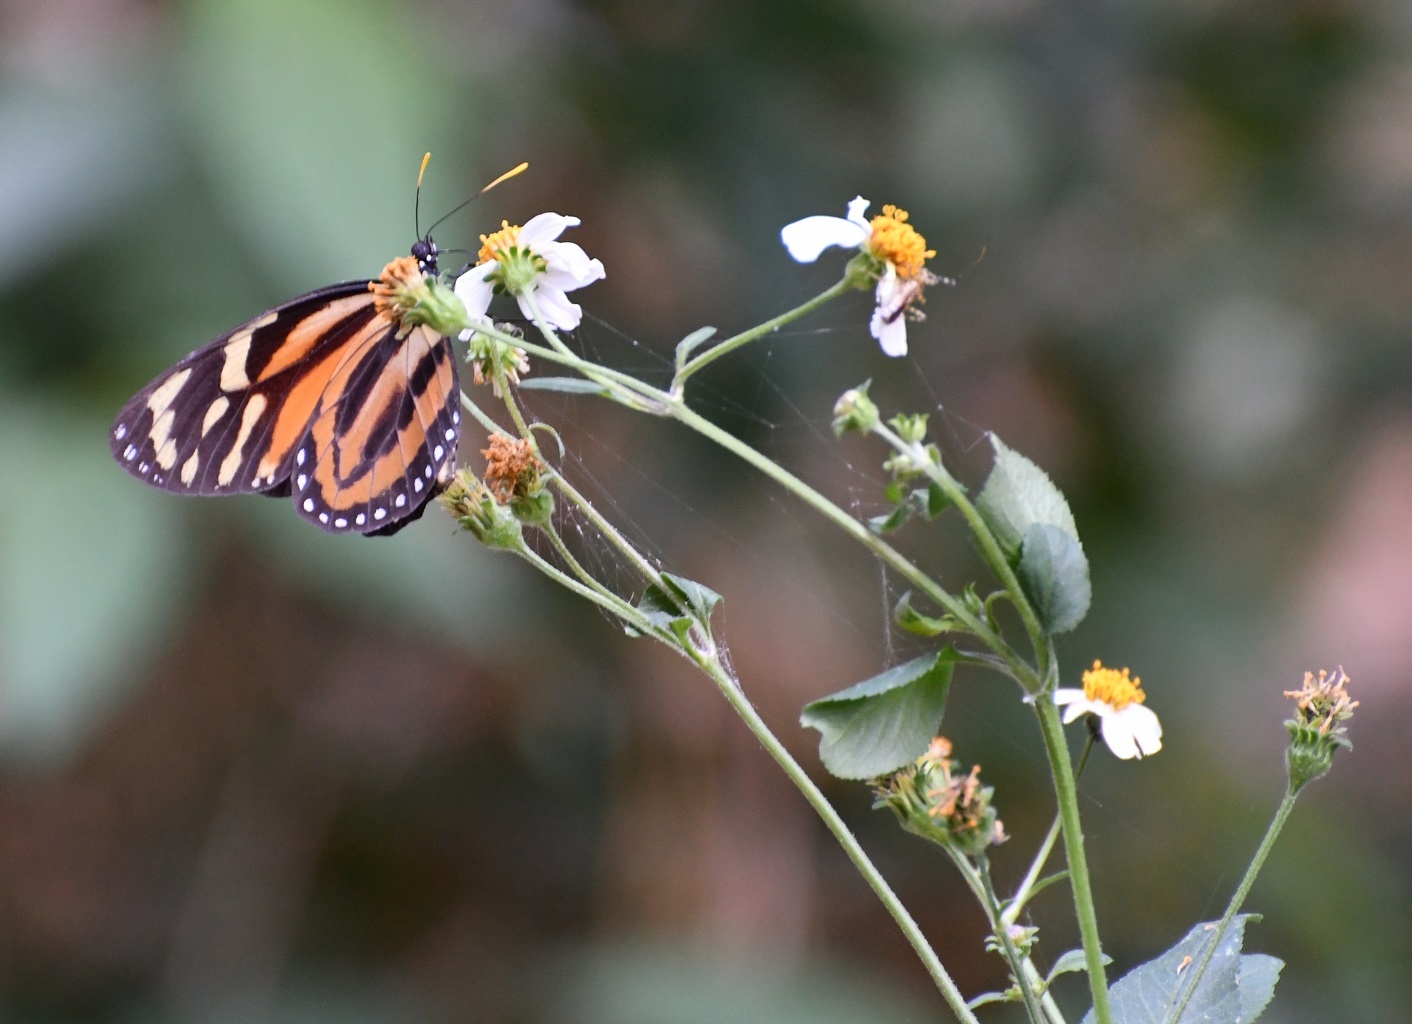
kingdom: Animalia
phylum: Arthropoda
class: Insecta
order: Lepidoptera
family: Nymphalidae
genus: Lycorea
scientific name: Lycorea cleobaea
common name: Tiger mimic-queen
